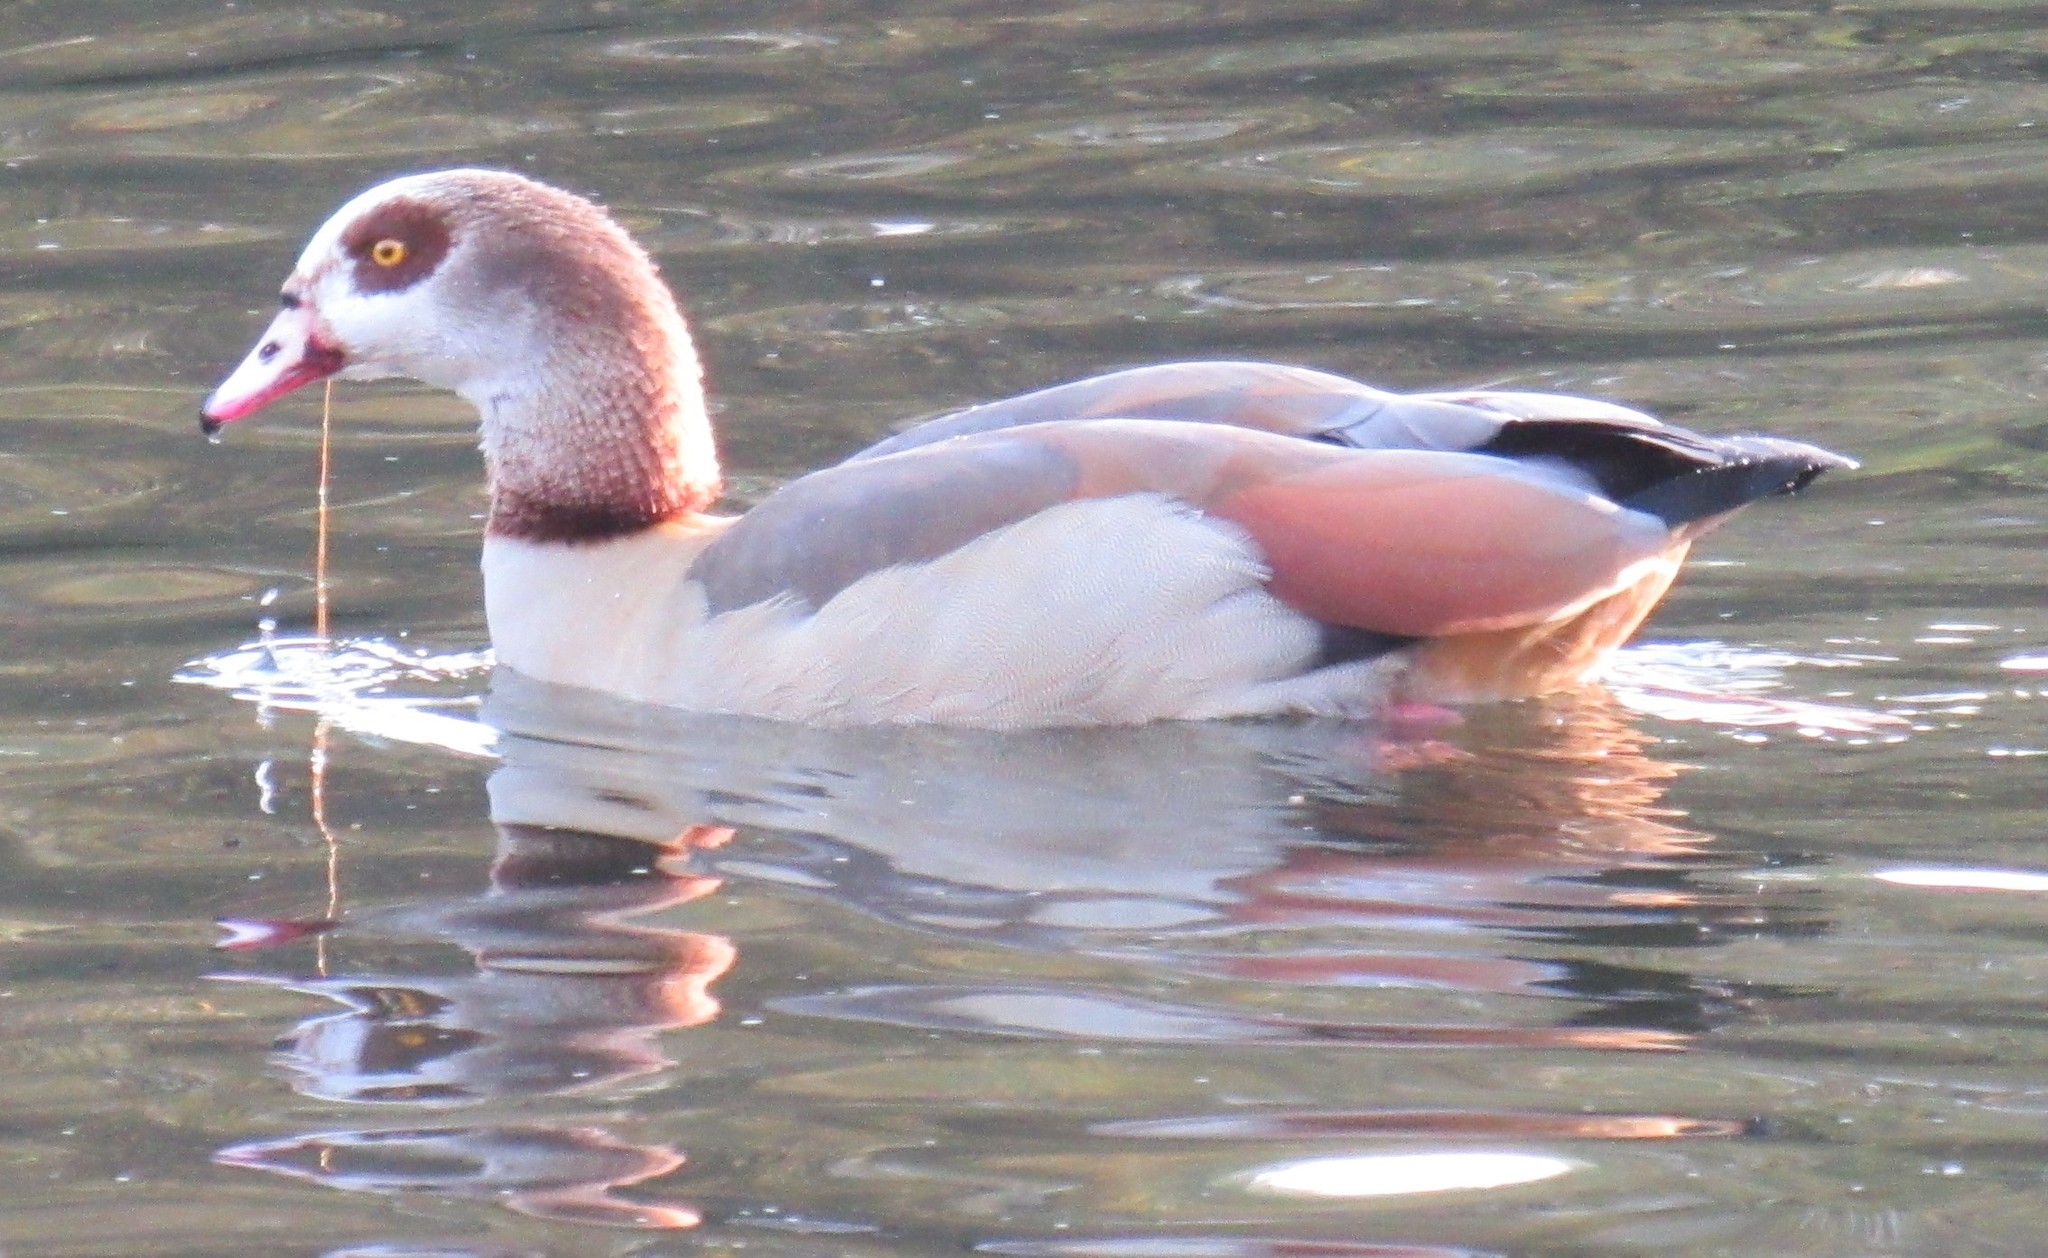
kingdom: Animalia
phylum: Chordata
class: Aves
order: Anseriformes
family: Anatidae
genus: Alopochen
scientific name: Alopochen aegyptiaca
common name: Egyptian goose
